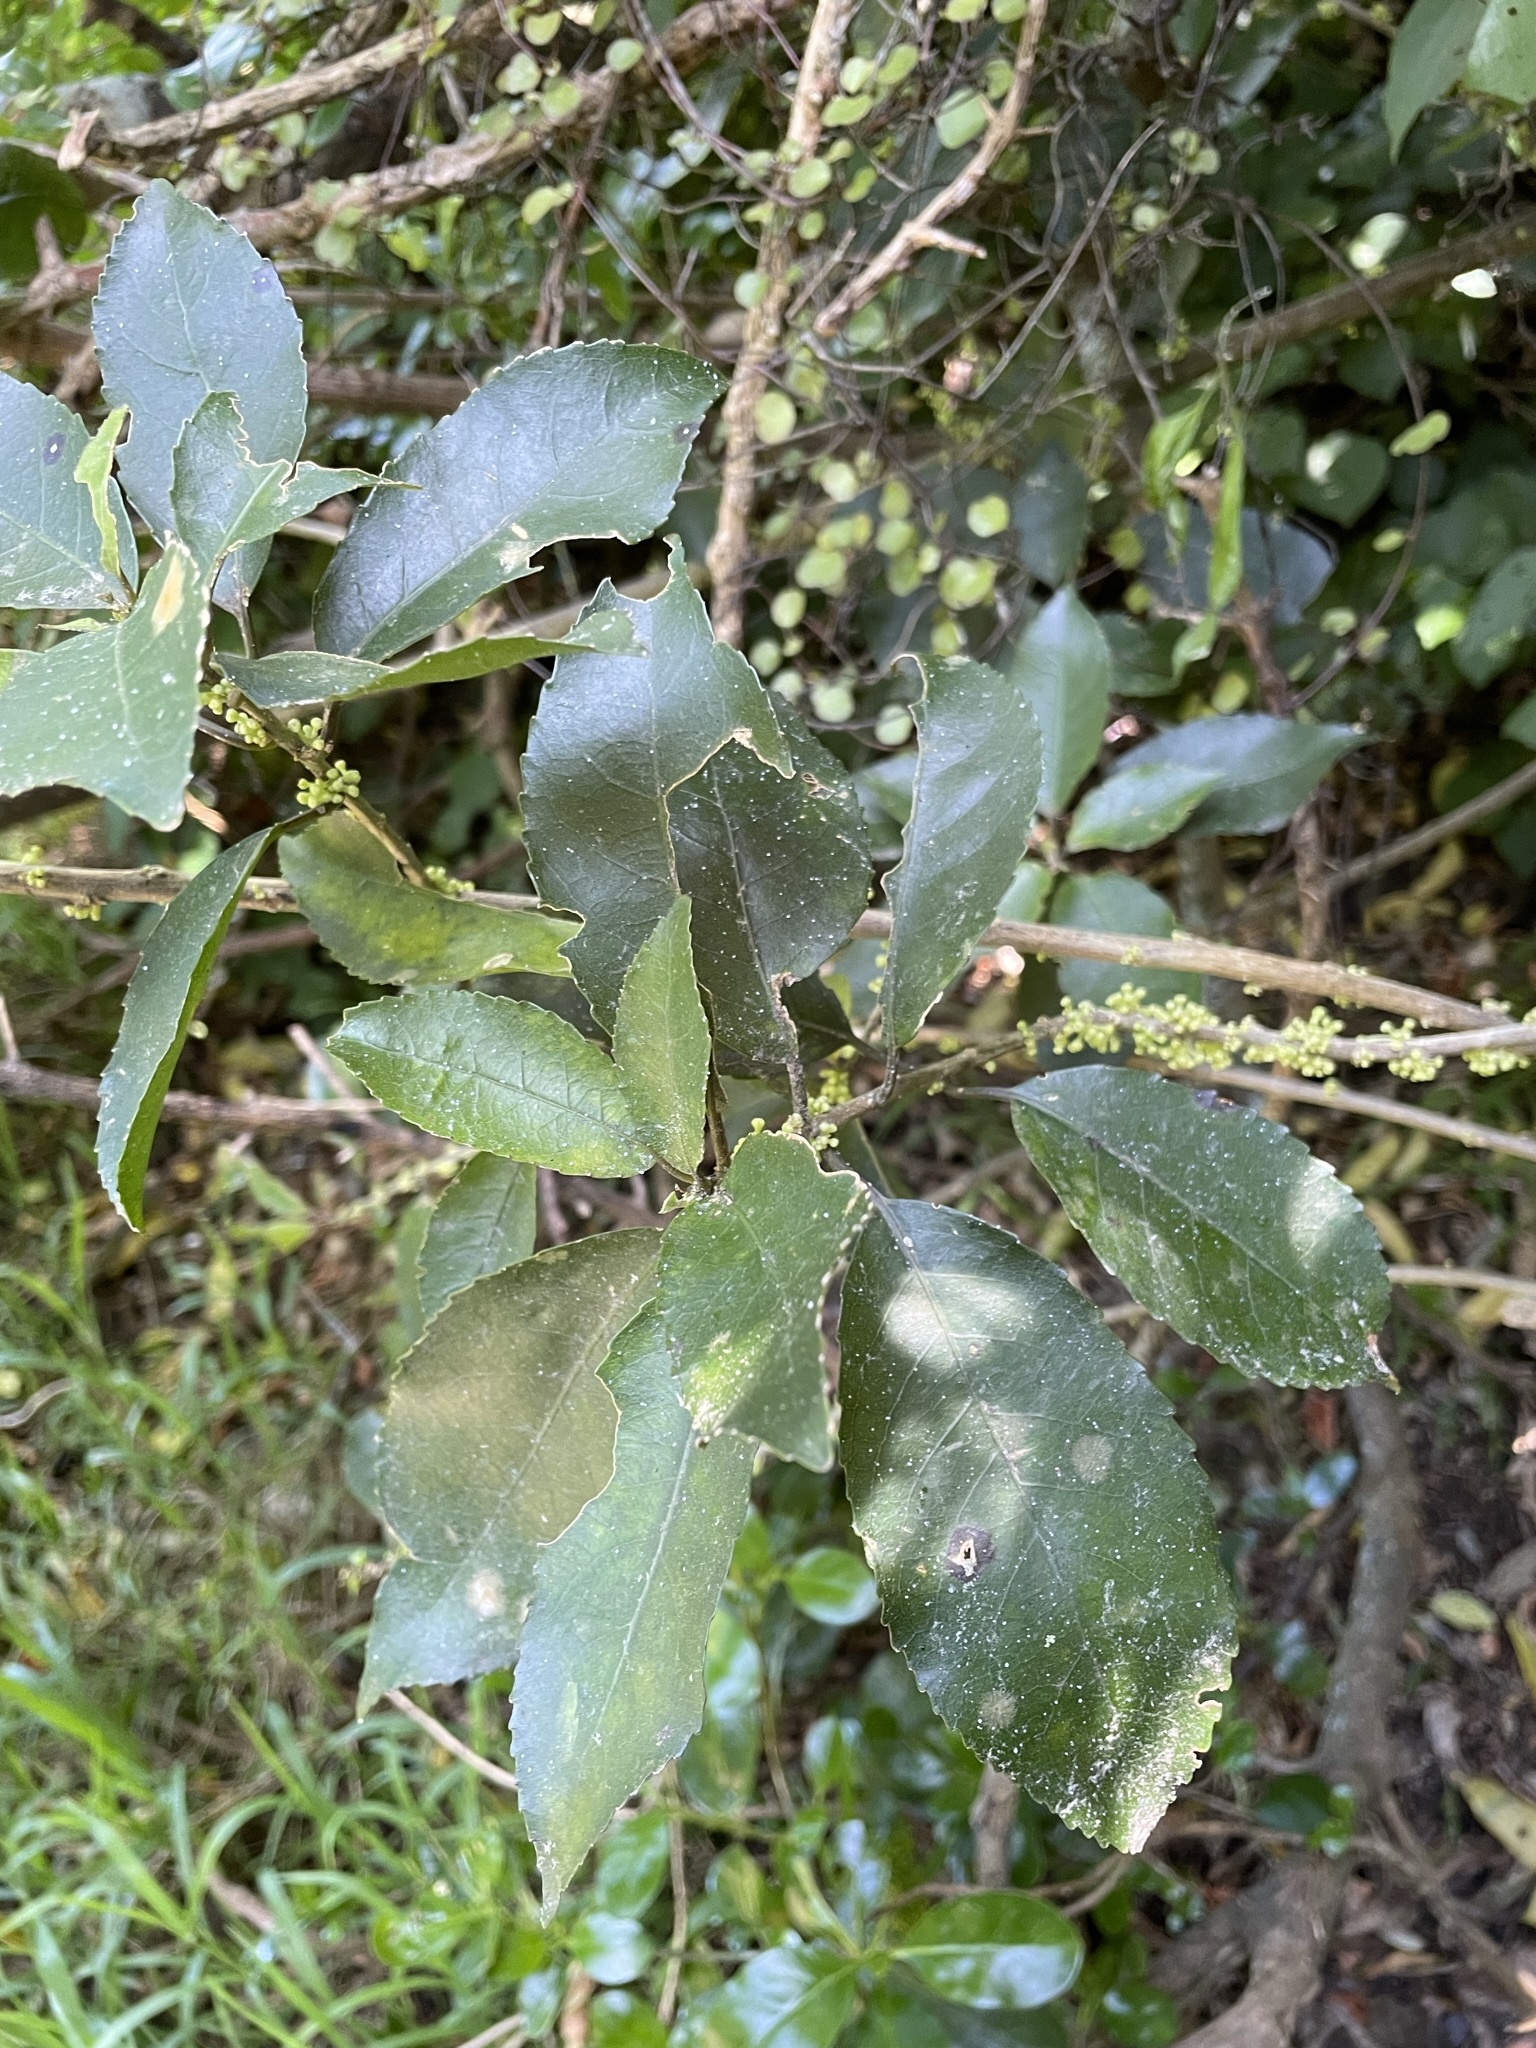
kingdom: Plantae
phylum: Tracheophyta
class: Magnoliopsida
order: Malpighiales
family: Violaceae
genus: Melicytus
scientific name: Melicytus ramiflorus
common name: Mahoe
